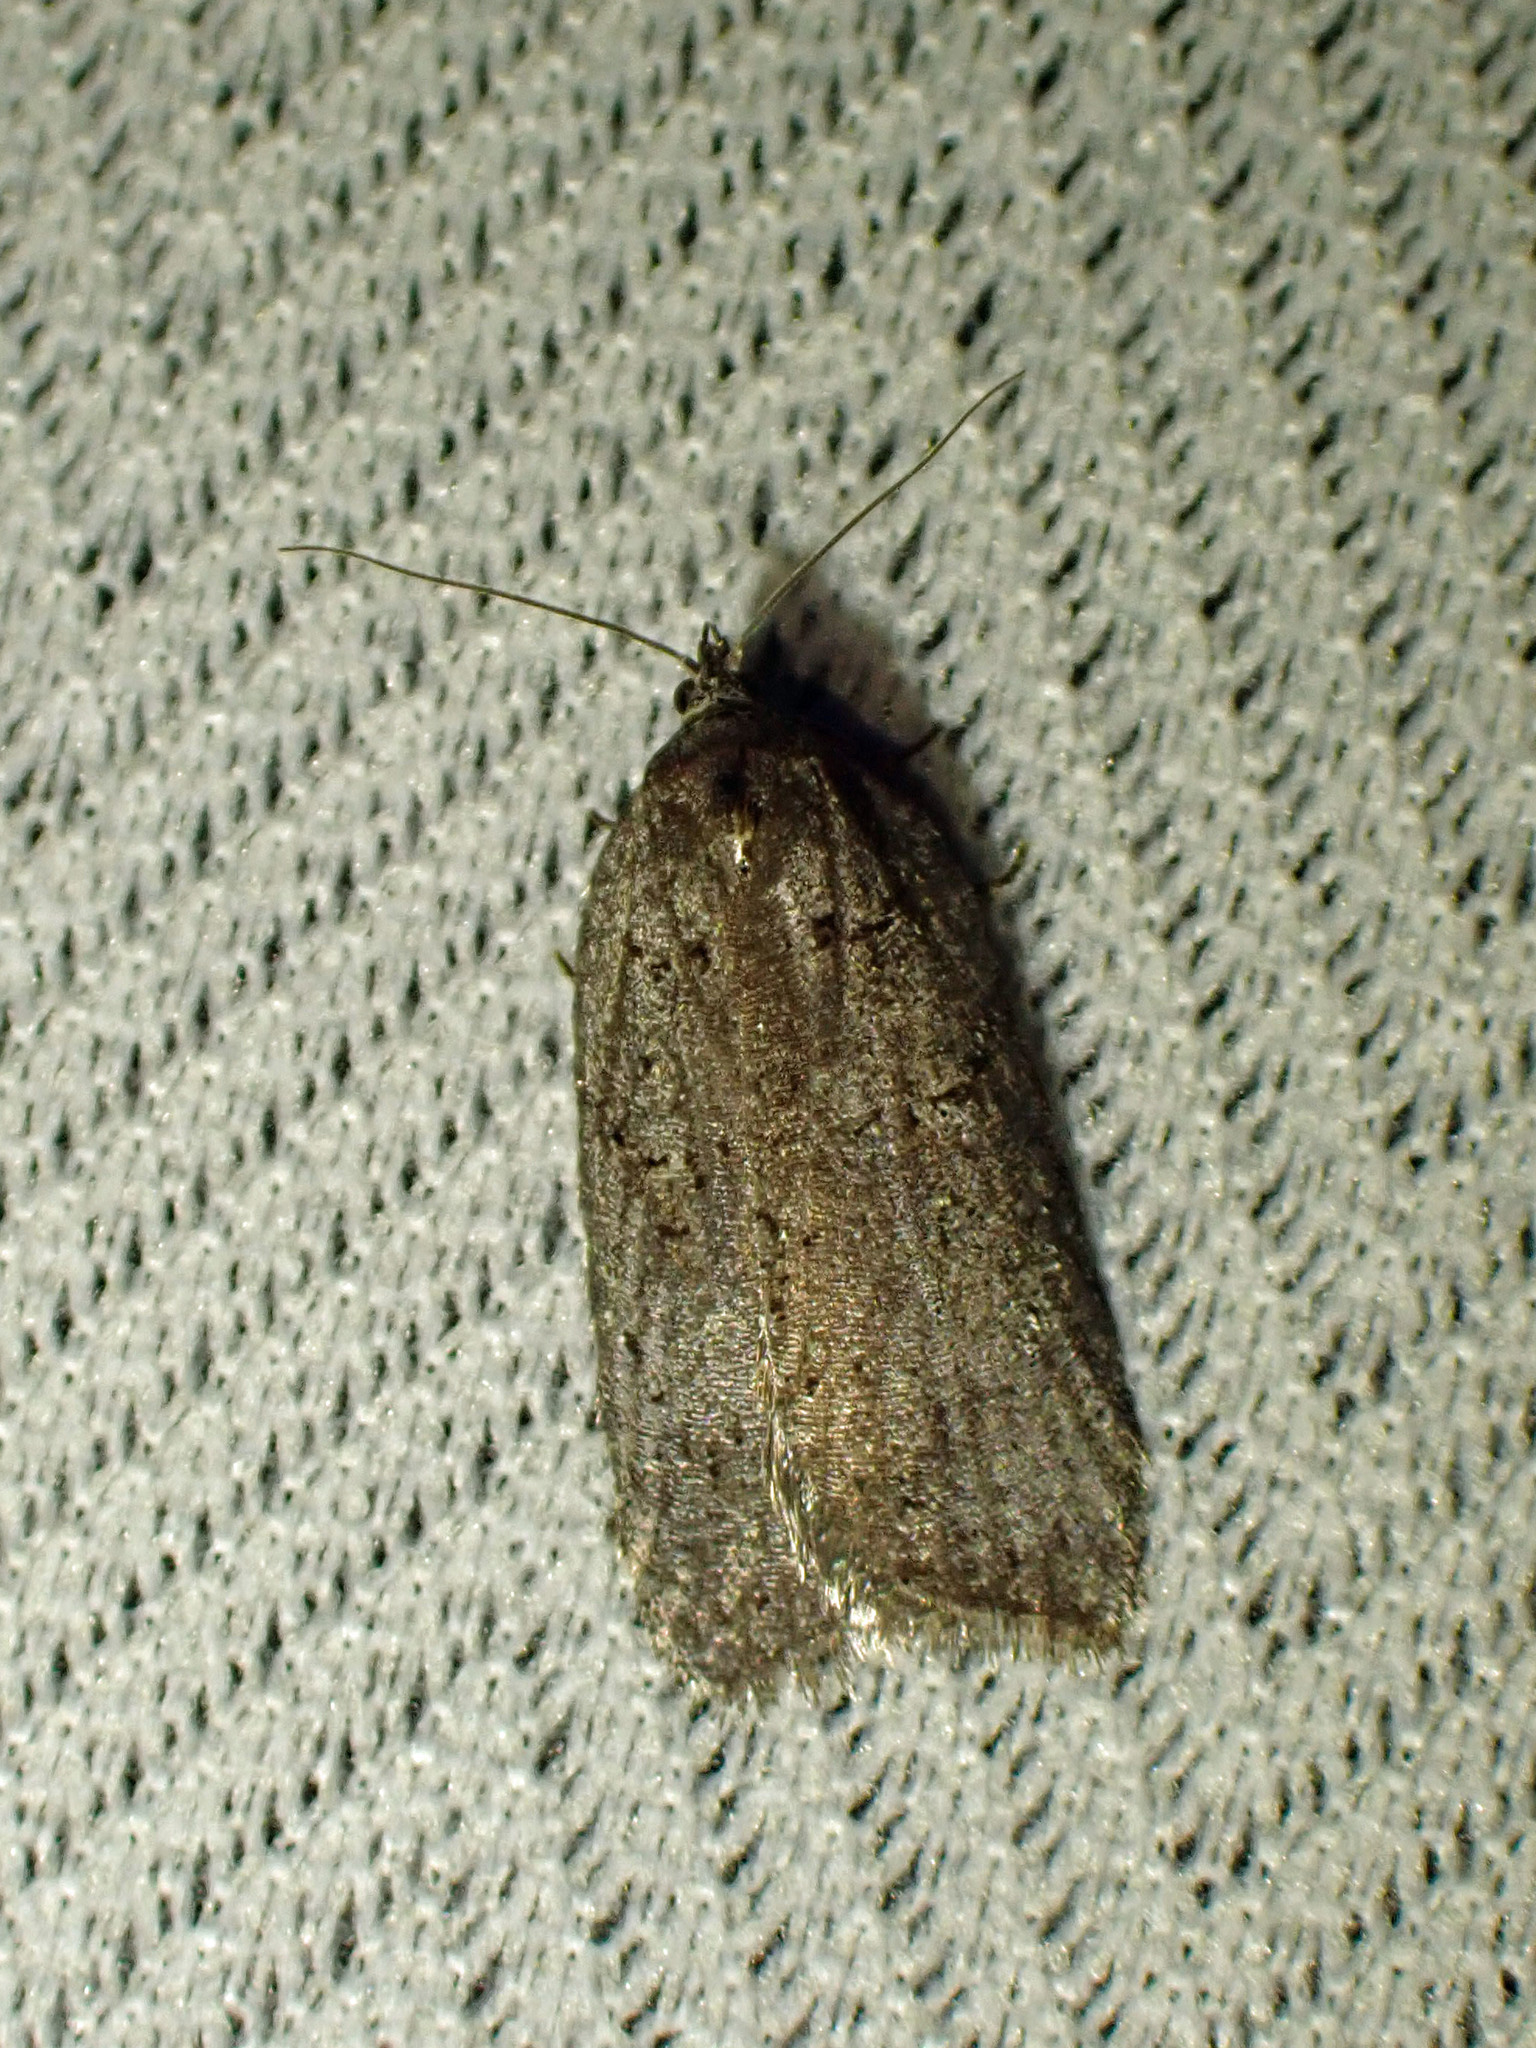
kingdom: Animalia
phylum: Arthropoda
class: Insecta
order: Lepidoptera
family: Tortricidae
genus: Acleris
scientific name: Acleris caliginosana
